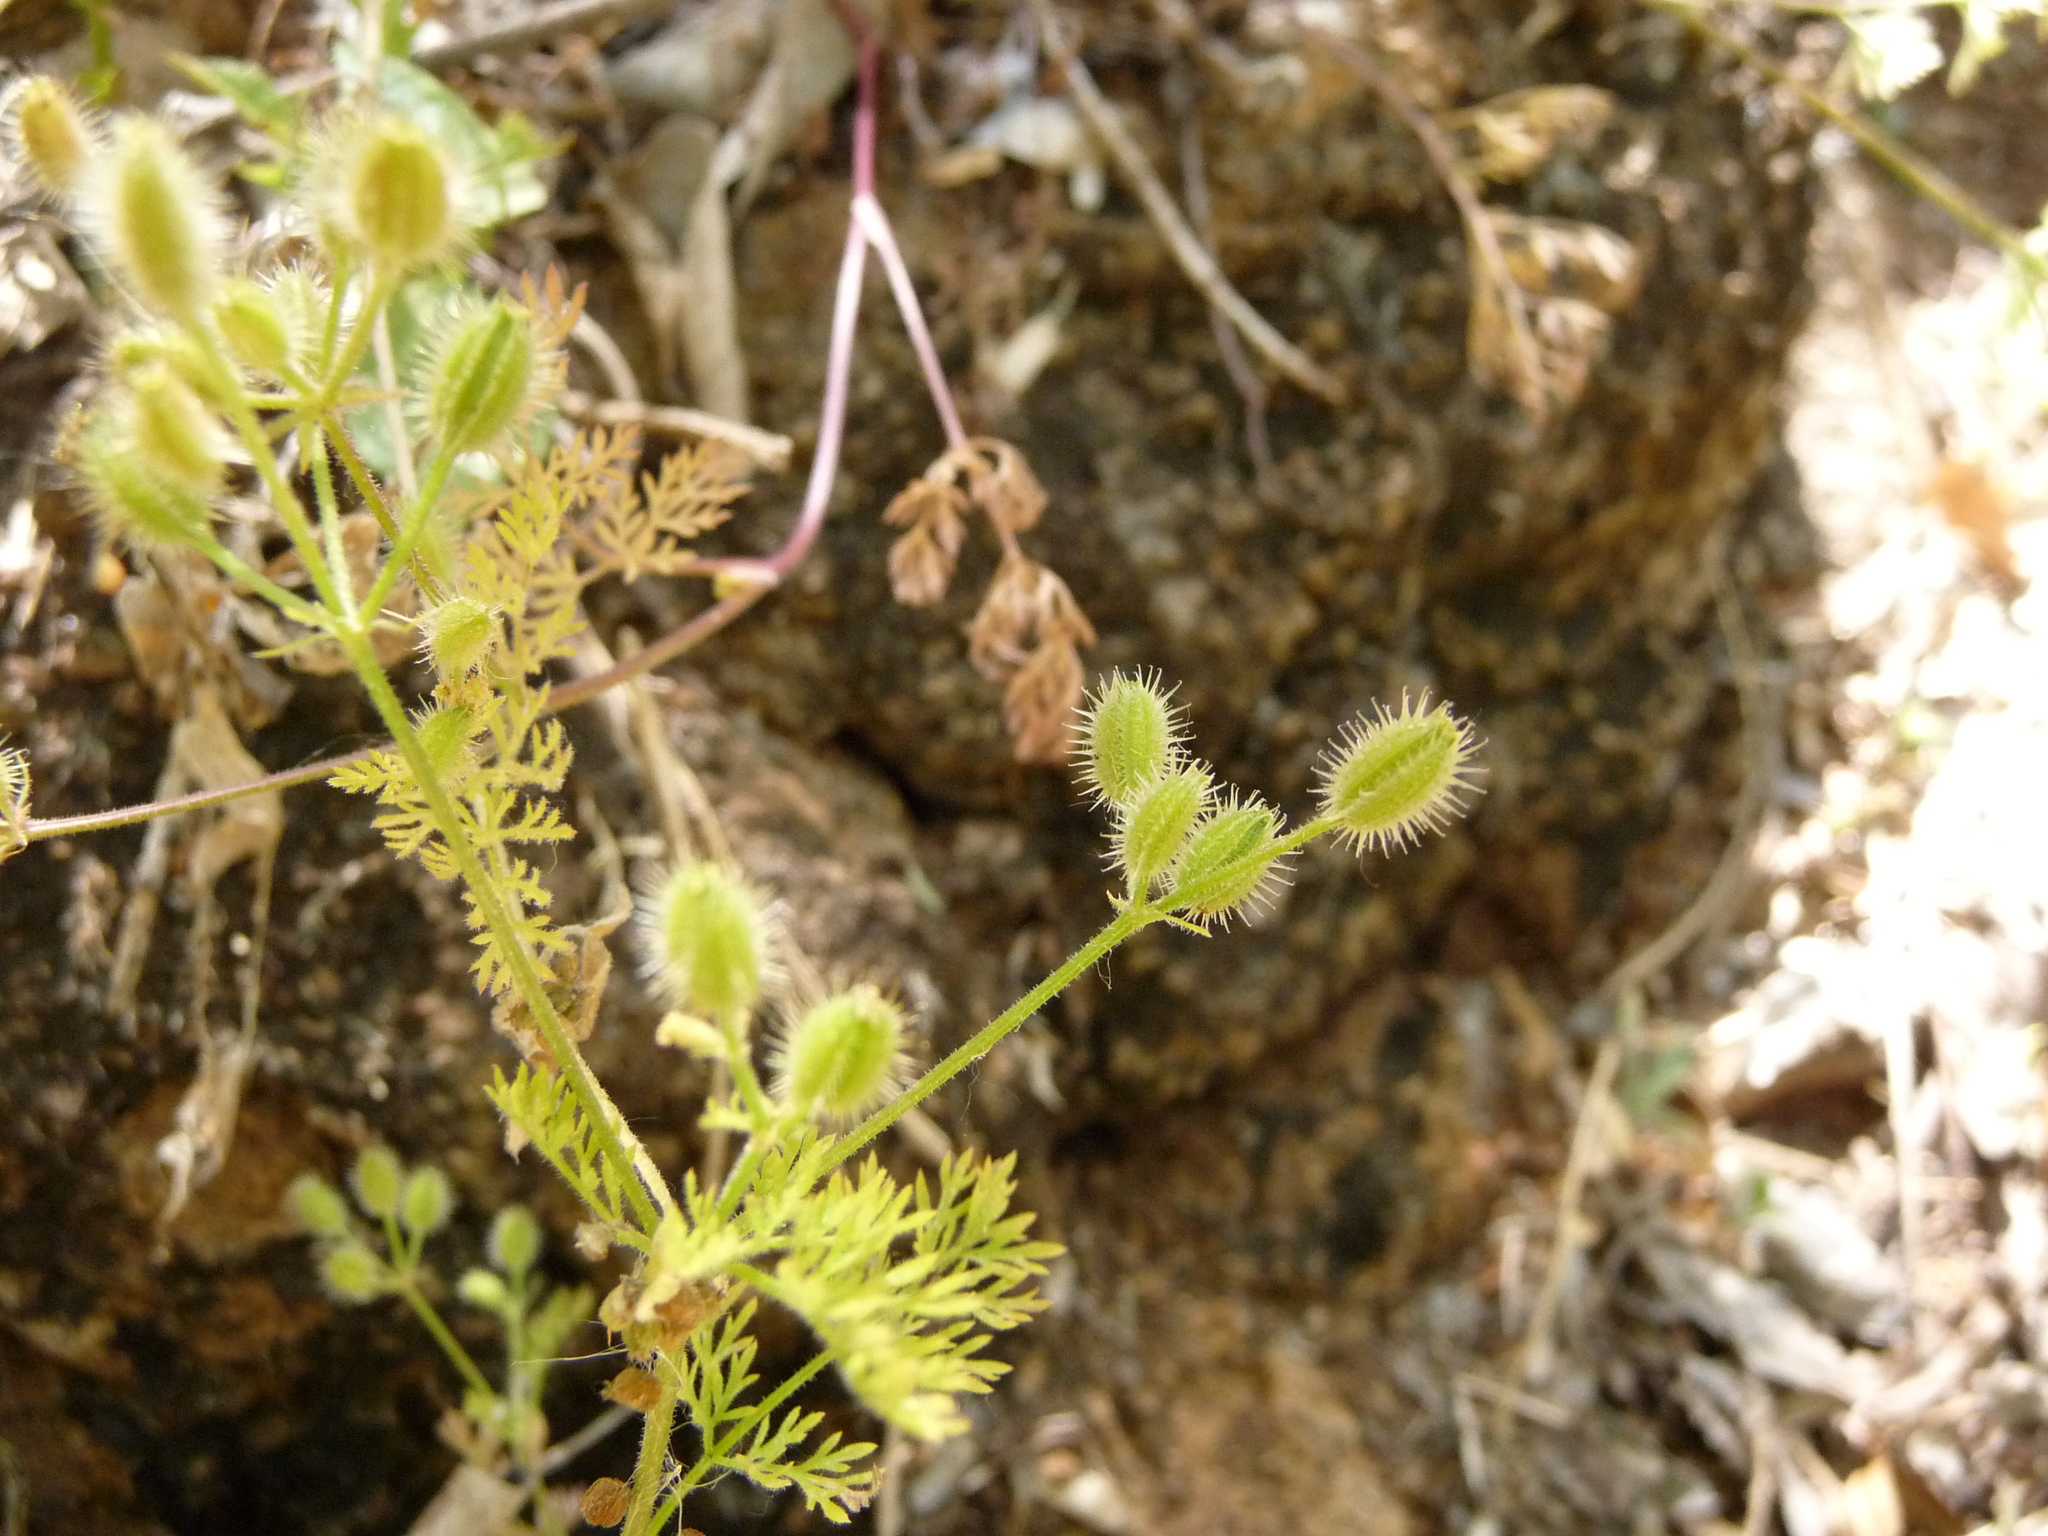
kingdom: Plantae
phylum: Tracheophyta
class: Magnoliopsida
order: Apiales
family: Apiaceae
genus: Yabea
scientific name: Yabea microcarpa
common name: False carrot
